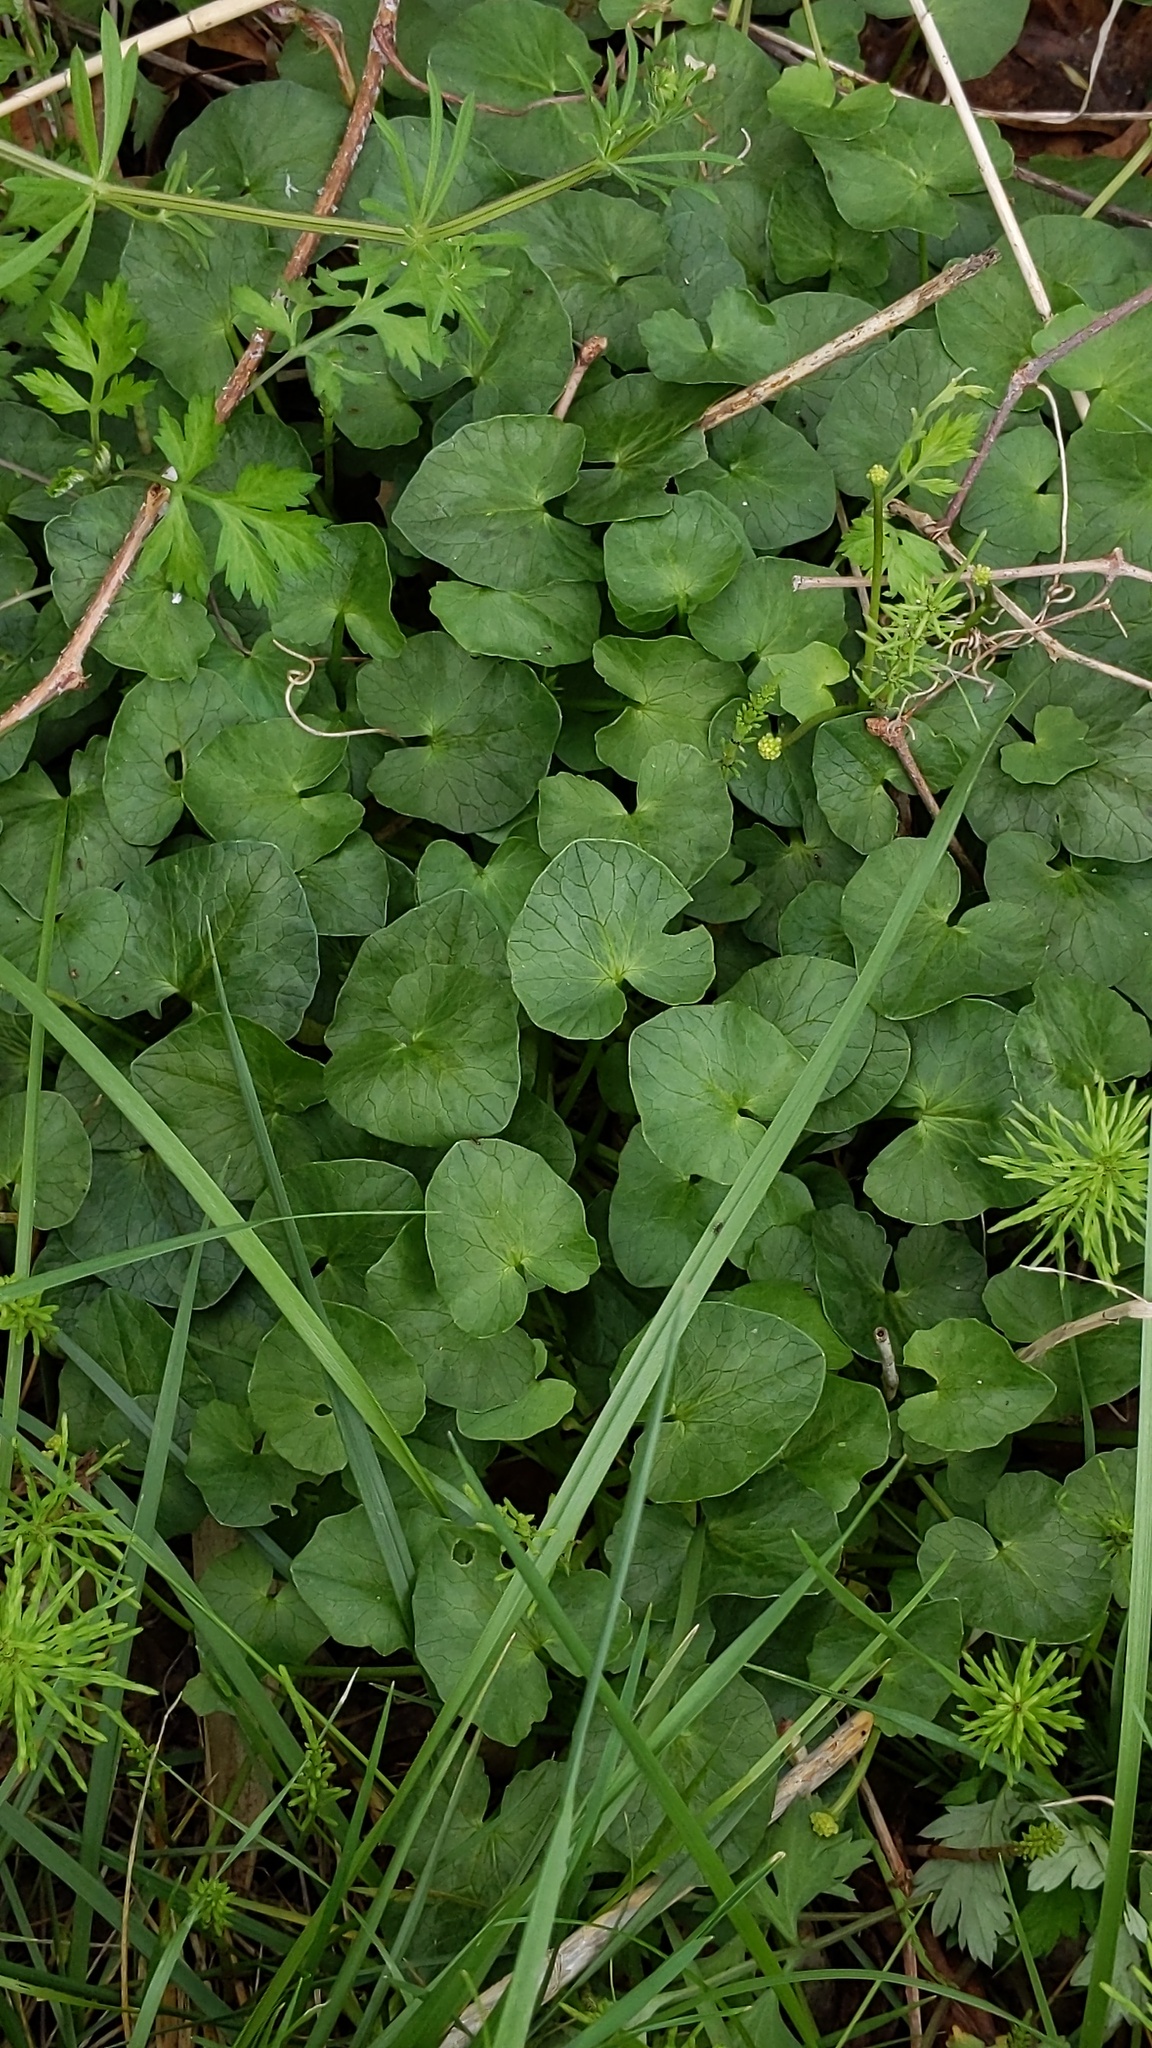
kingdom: Plantae
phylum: Tracheophyta
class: Magnoliopsida
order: Ranunculales
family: Ranunculaceae
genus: Ficaria
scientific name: Ficaria verna
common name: Lesser celandine
